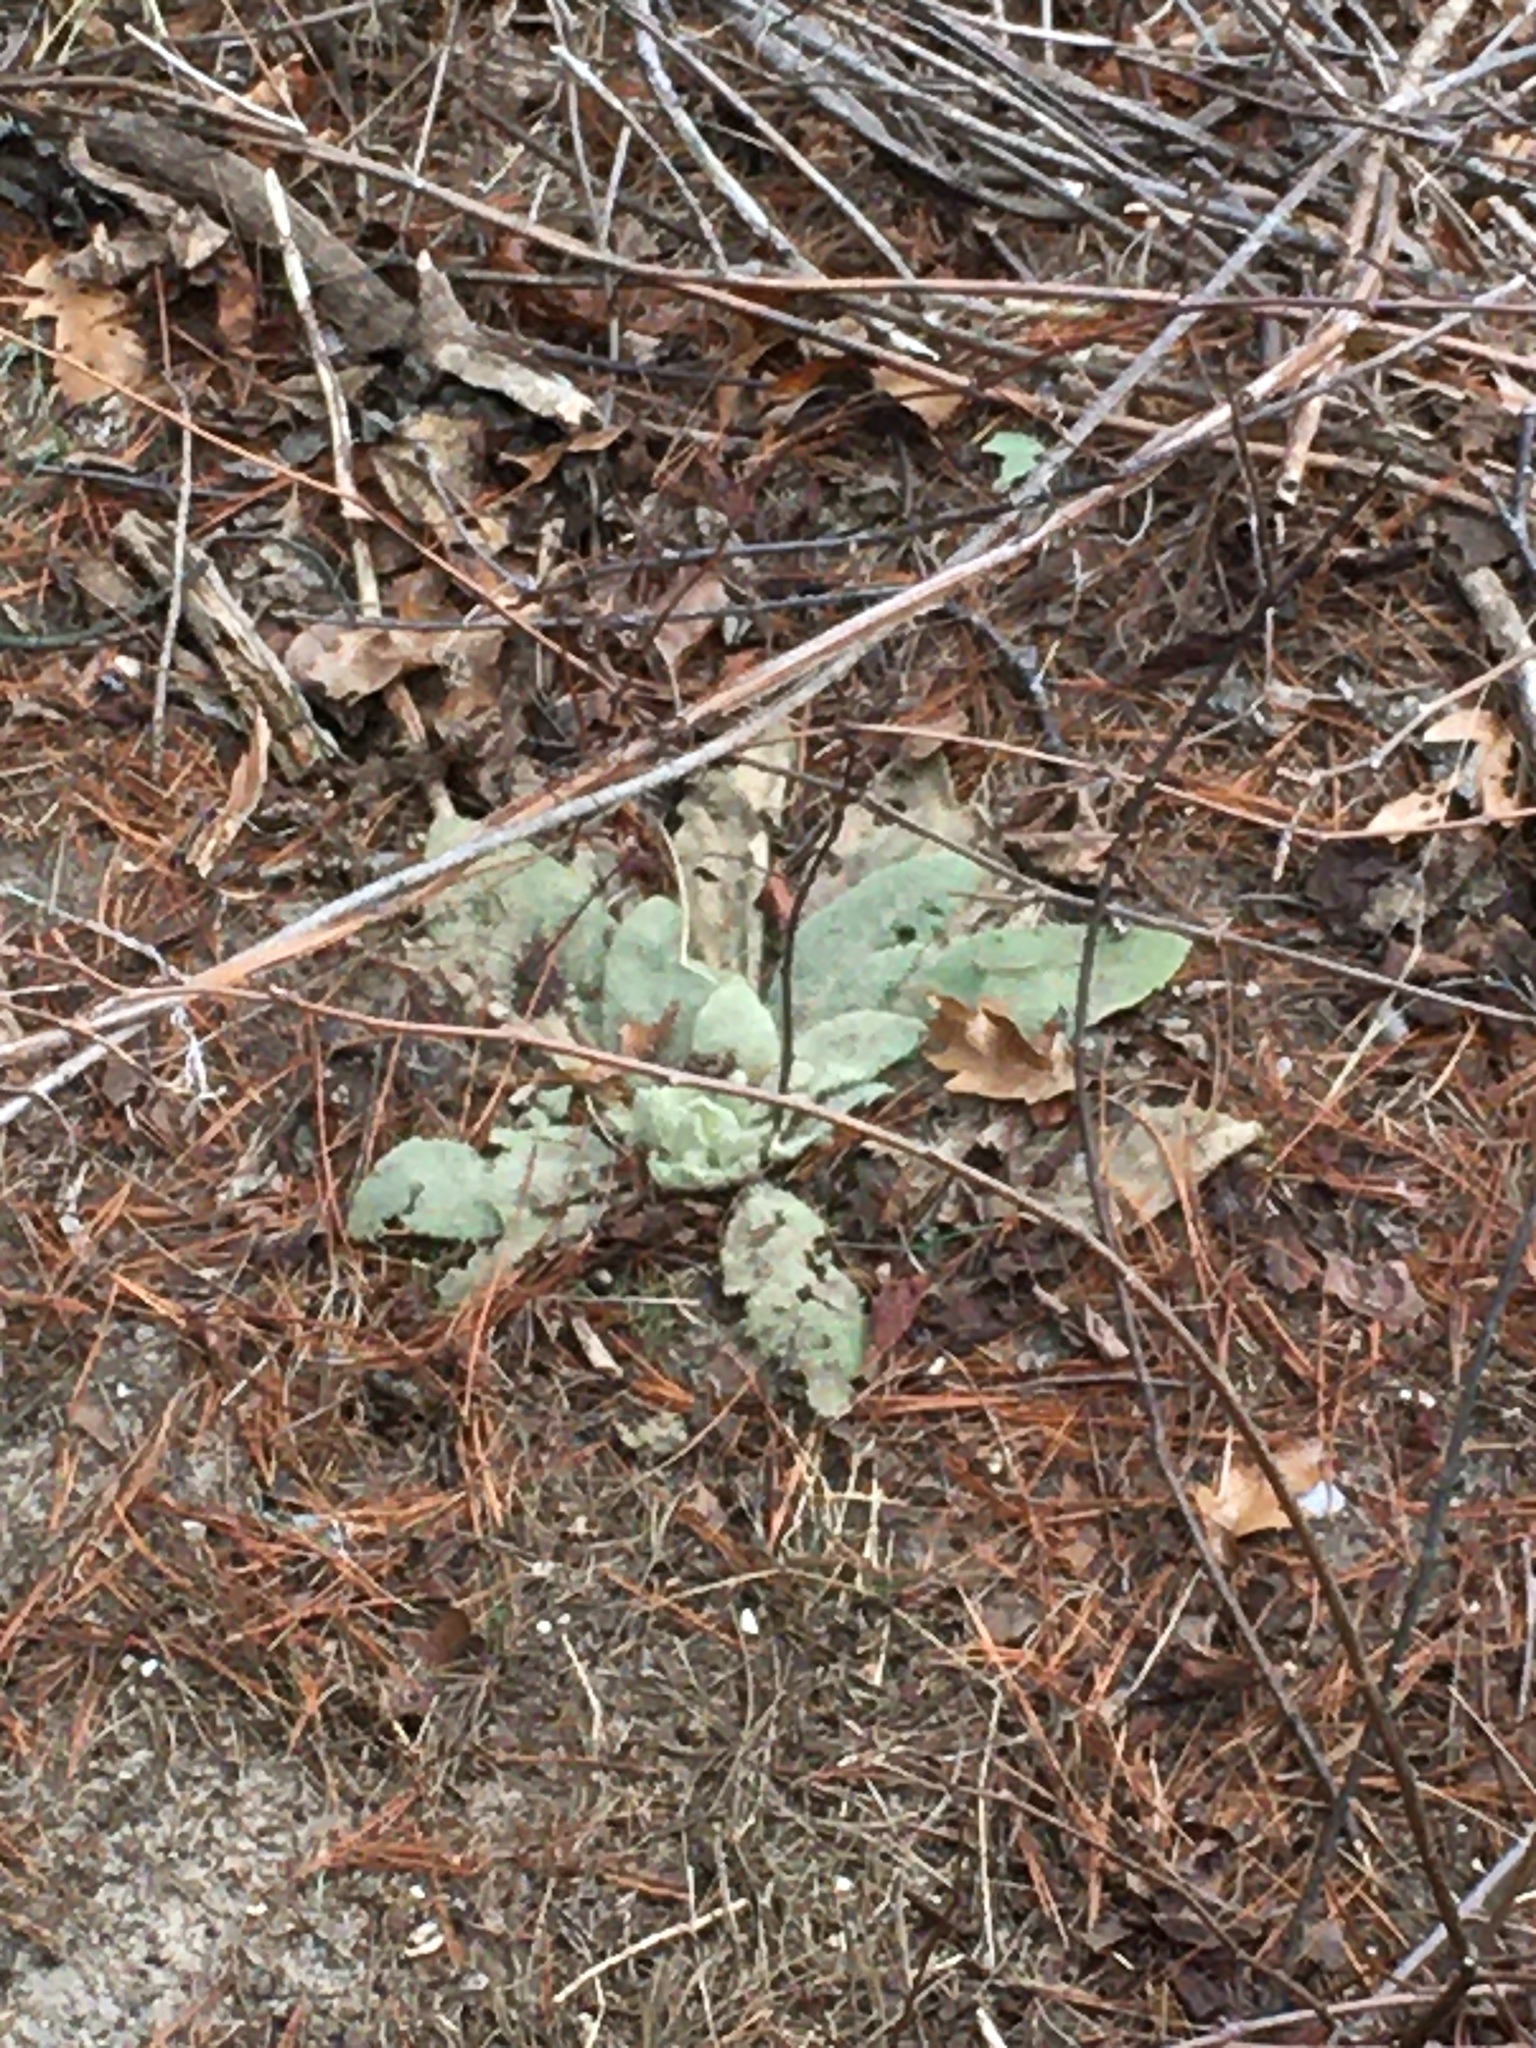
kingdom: Plantae
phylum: Tracheophyta
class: Magnoliopsida
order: Lamiales
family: Scrophulariaceae
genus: Verbascum
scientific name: Verbascum thapsus
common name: Common mullein
